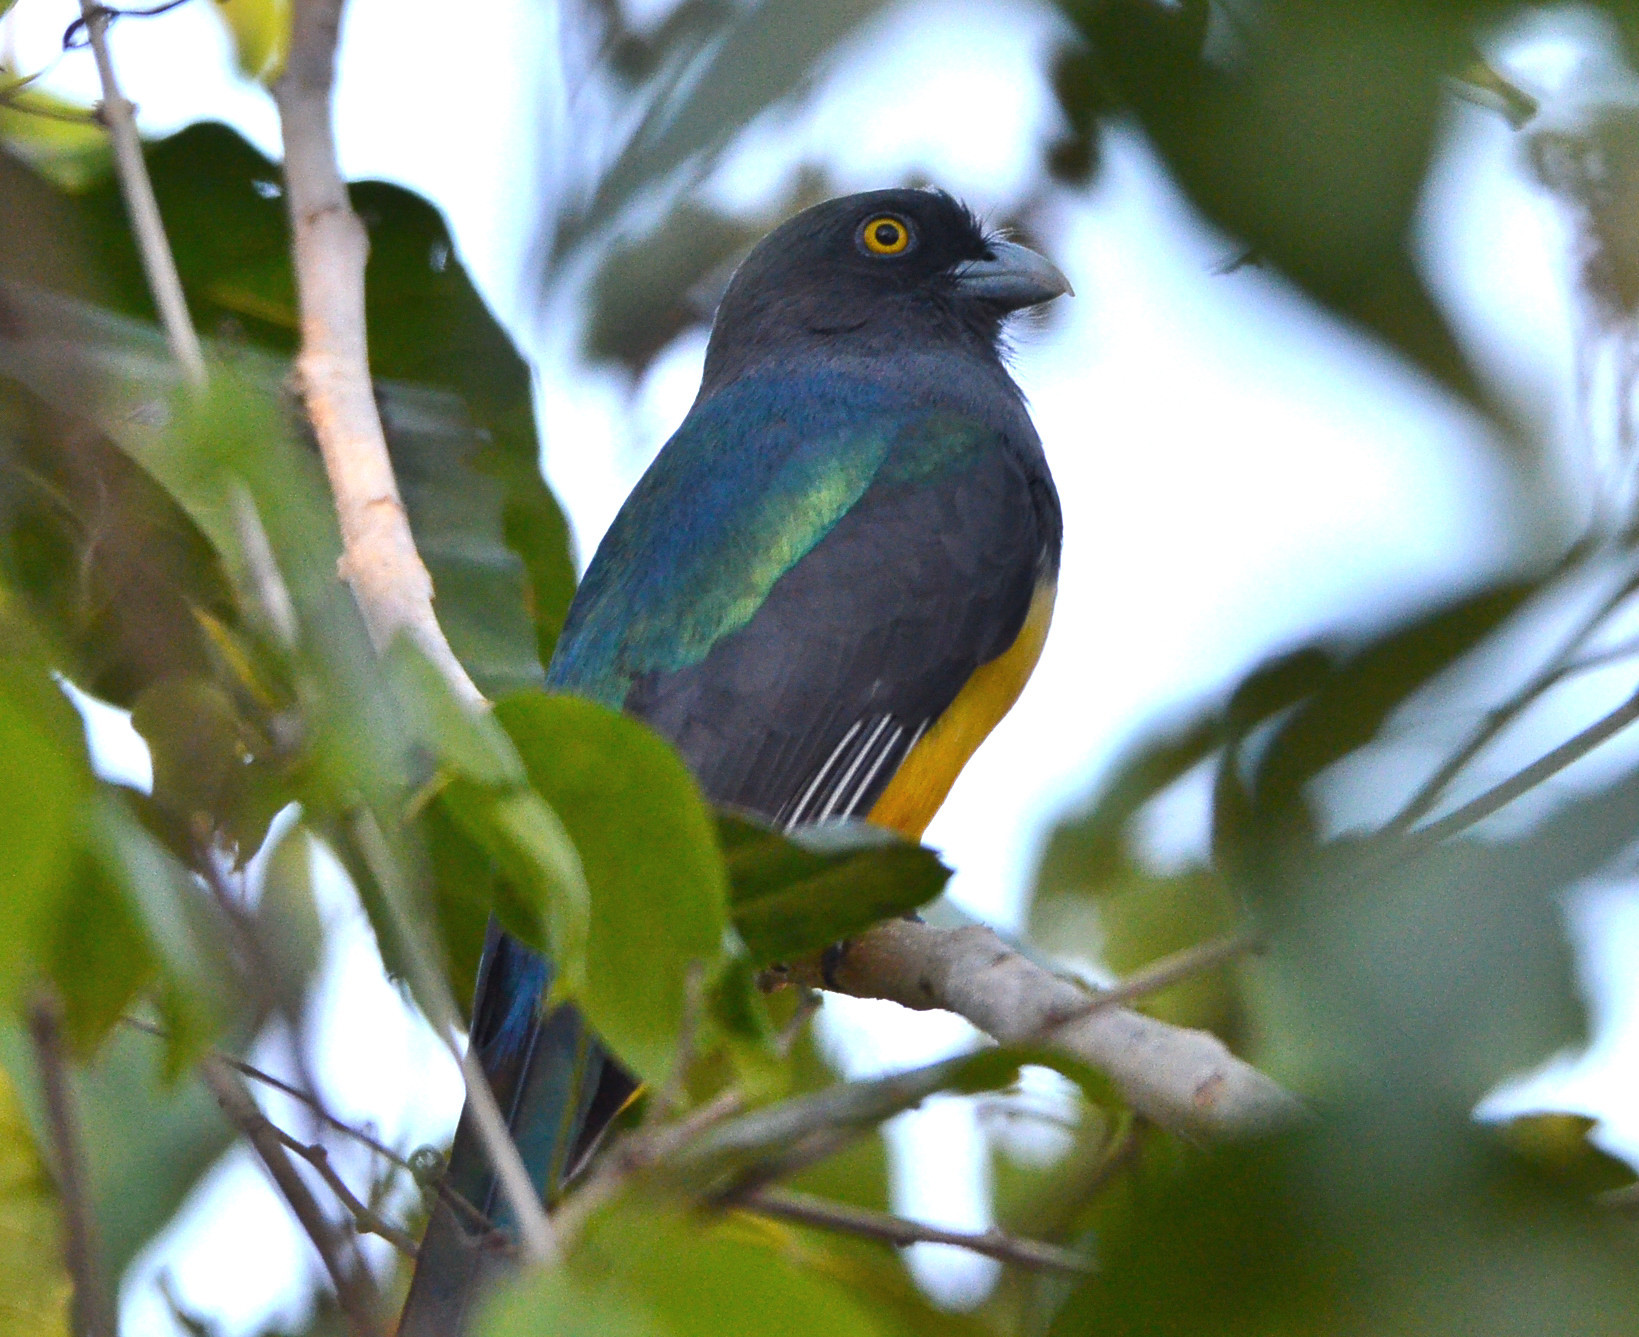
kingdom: Animalia
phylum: Chordata
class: Aves
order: Trogoniformes
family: Trogonidae
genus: Trogon
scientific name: Trogon citreolus
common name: Citreoline trogon
